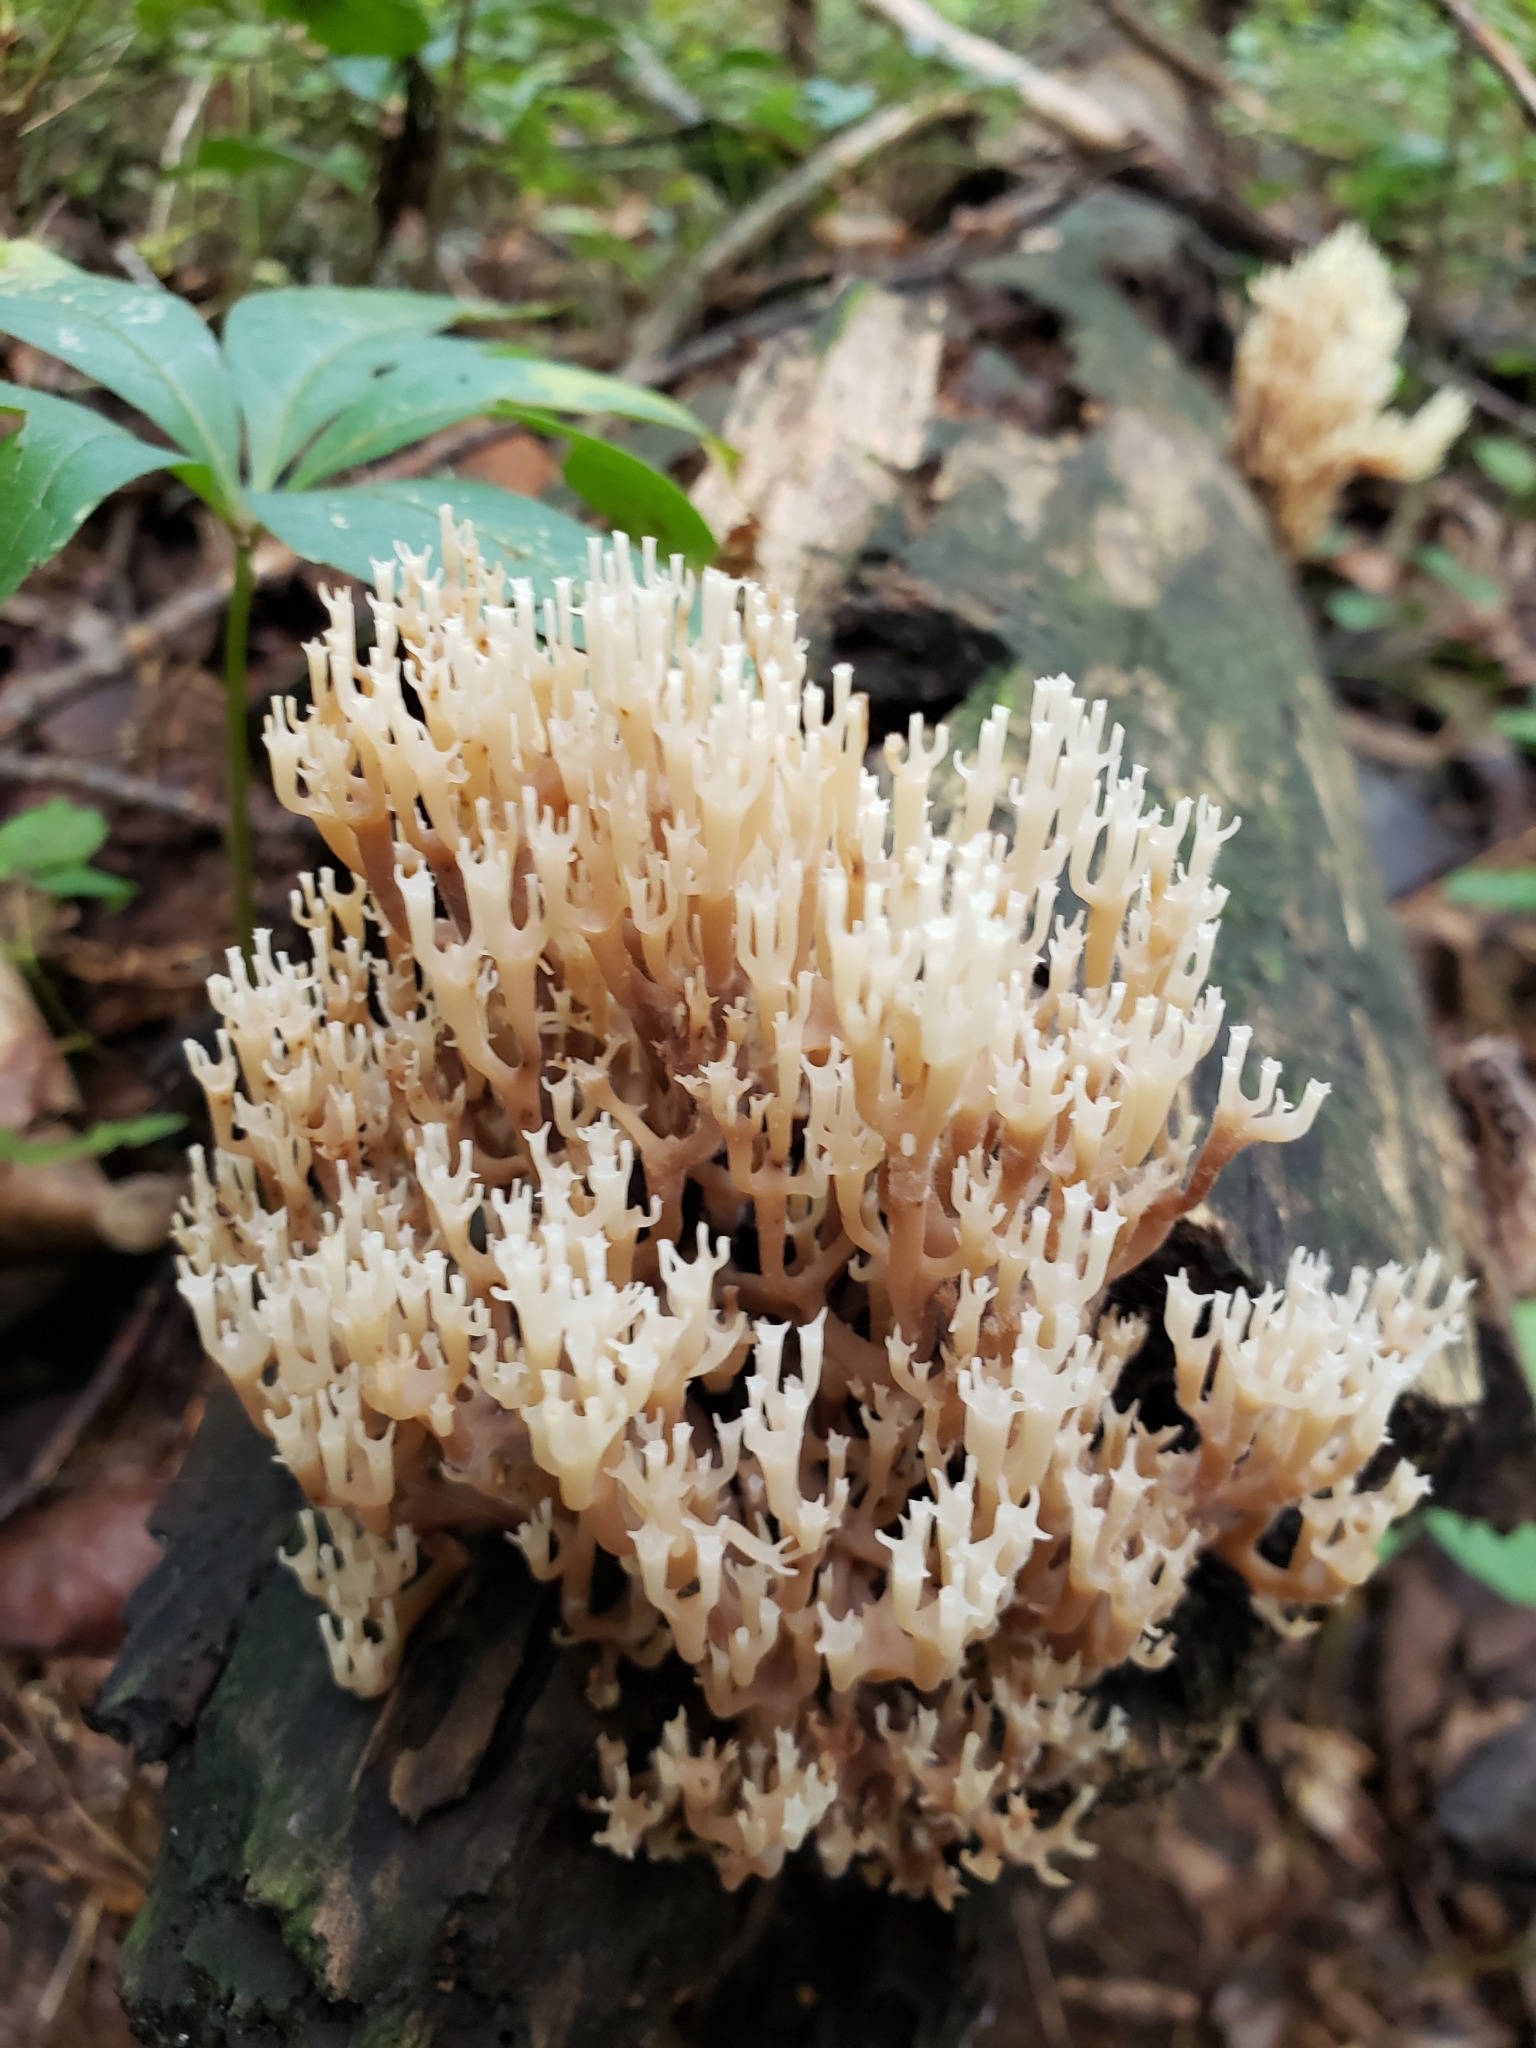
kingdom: Fungi
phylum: Basidiomycota
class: Agaricomycetes
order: Russulales
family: Auriscalpiaceae
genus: Artomyces
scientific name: Artomyces pyxidatus
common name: Crown-tipped coral fungus
